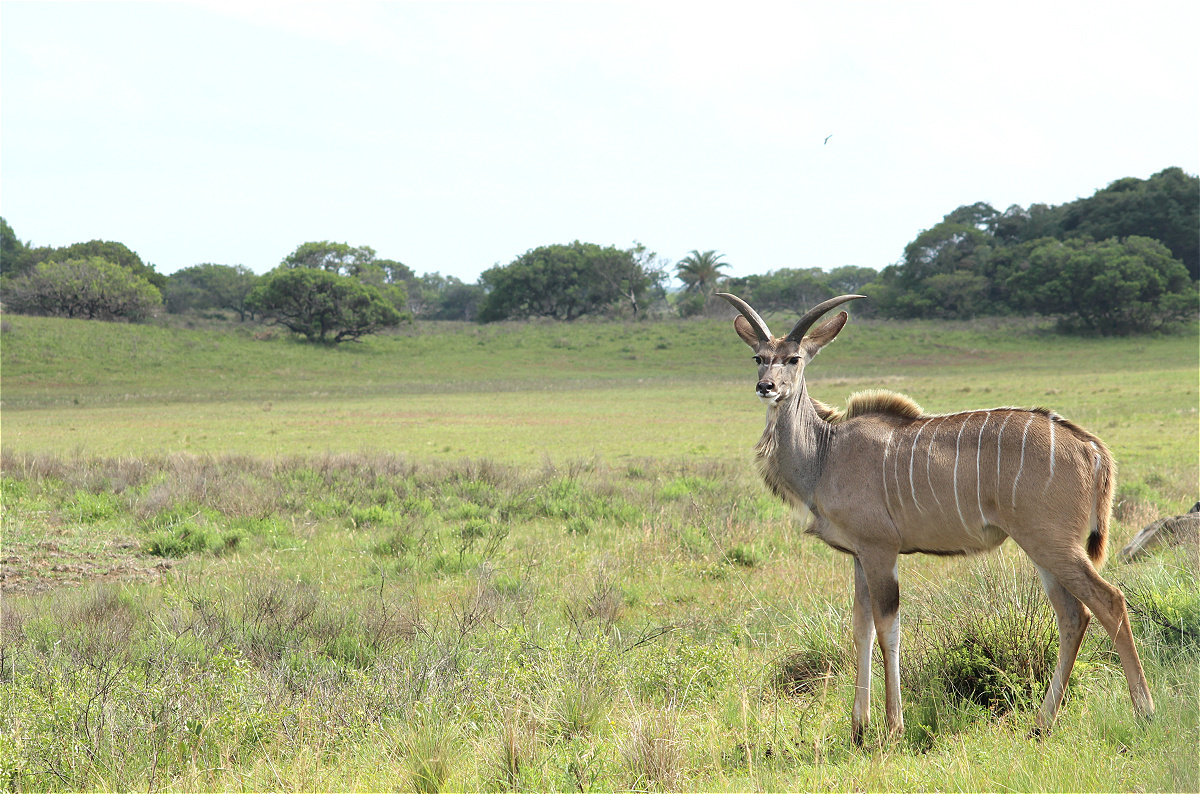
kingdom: Animalia
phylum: Chordata
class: Mammalia
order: Artiodactyla
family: Bovidae
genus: Tragelaphus
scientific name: Tragelaphus strepsiceros
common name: Greater kudu
